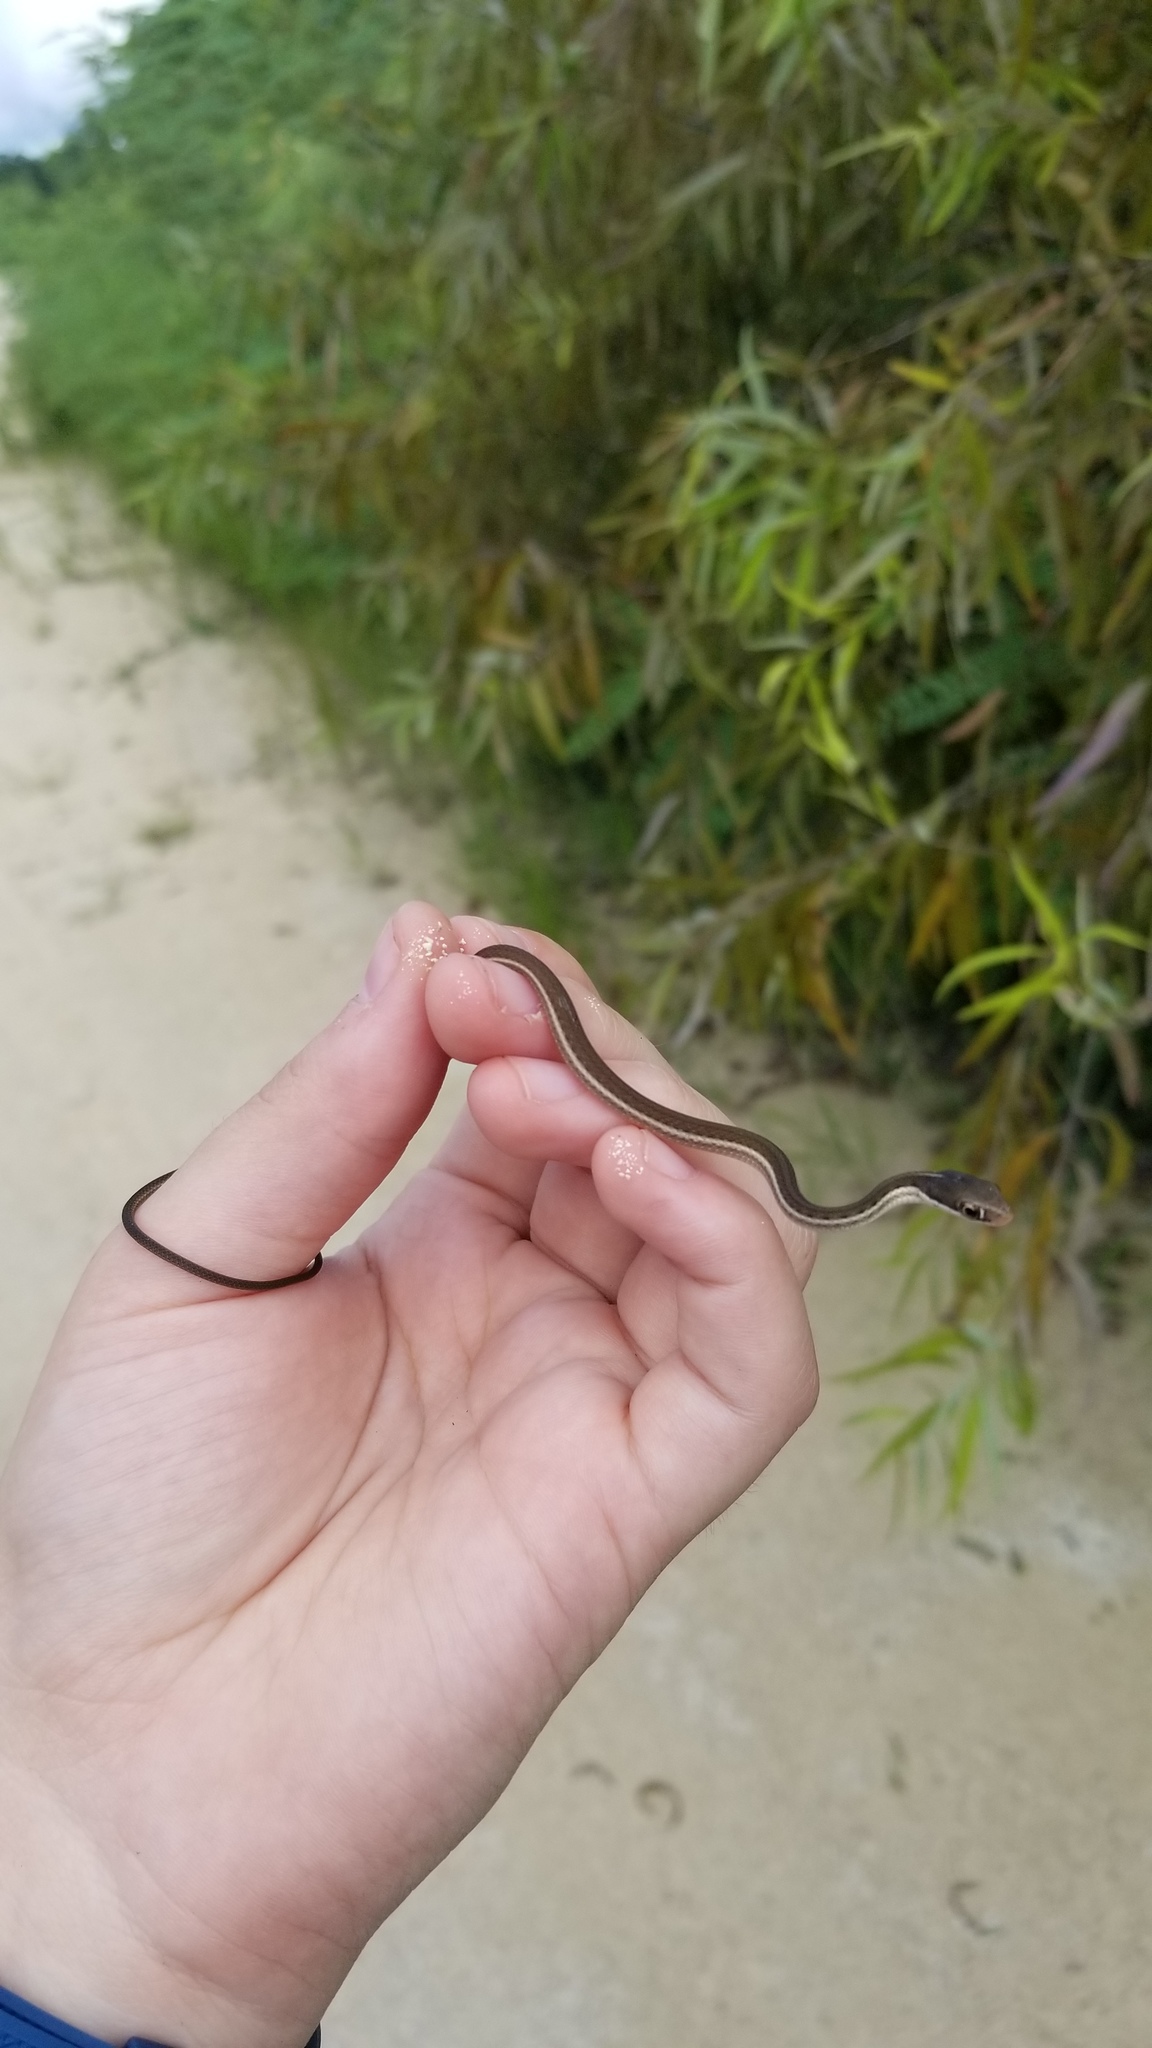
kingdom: Animalia
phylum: Chordata
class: Squamata
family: Colubridae
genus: Thamnophis
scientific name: Thamnophis saurita
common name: Eastern ribbonsnake
